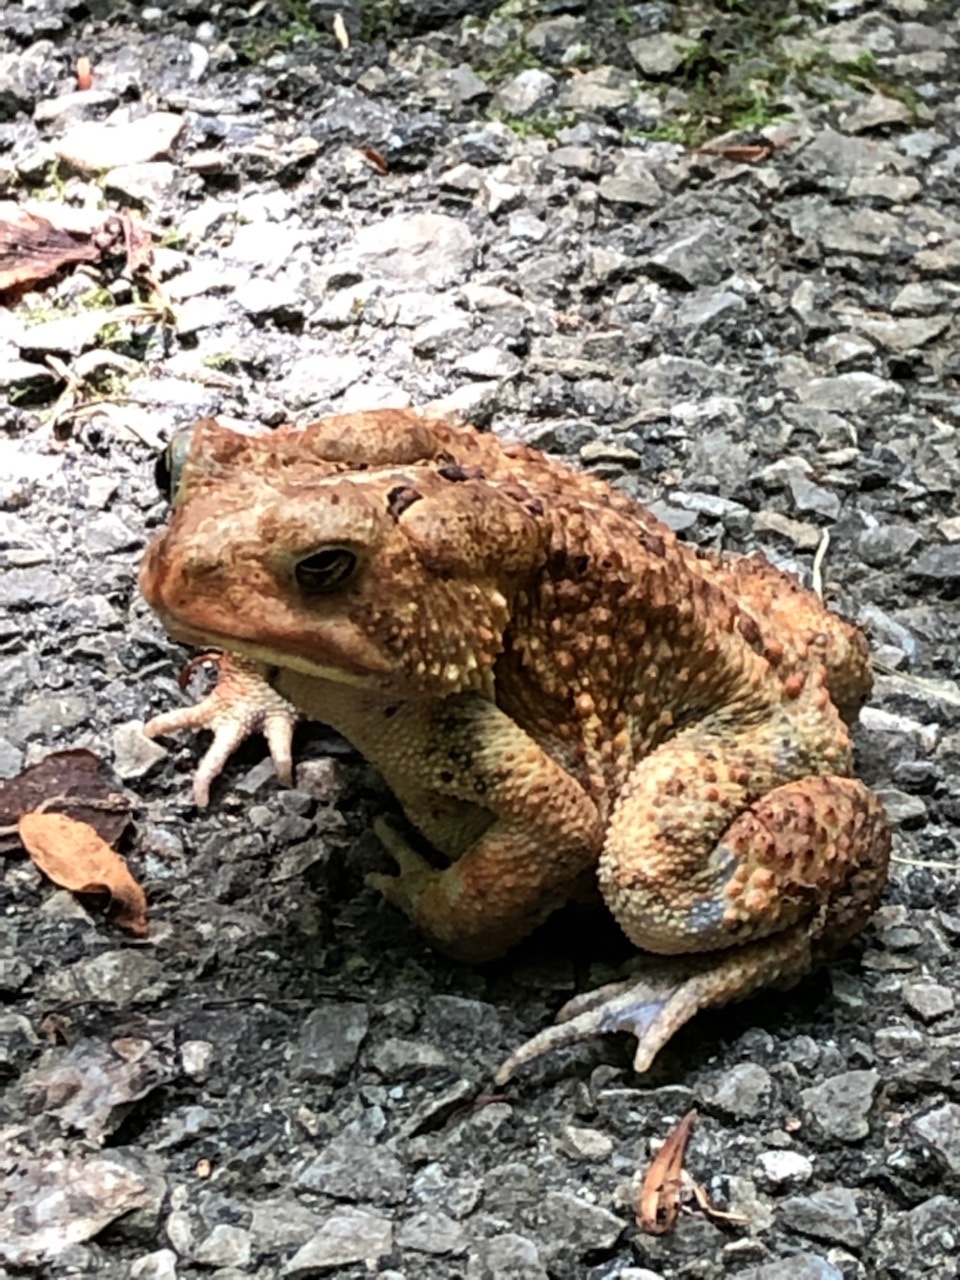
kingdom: Animalia
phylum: Chordata
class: Amphibia
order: Anura
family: Bufonidae
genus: Anaxyrus
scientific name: Anaxyrus americanus
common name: American toad
